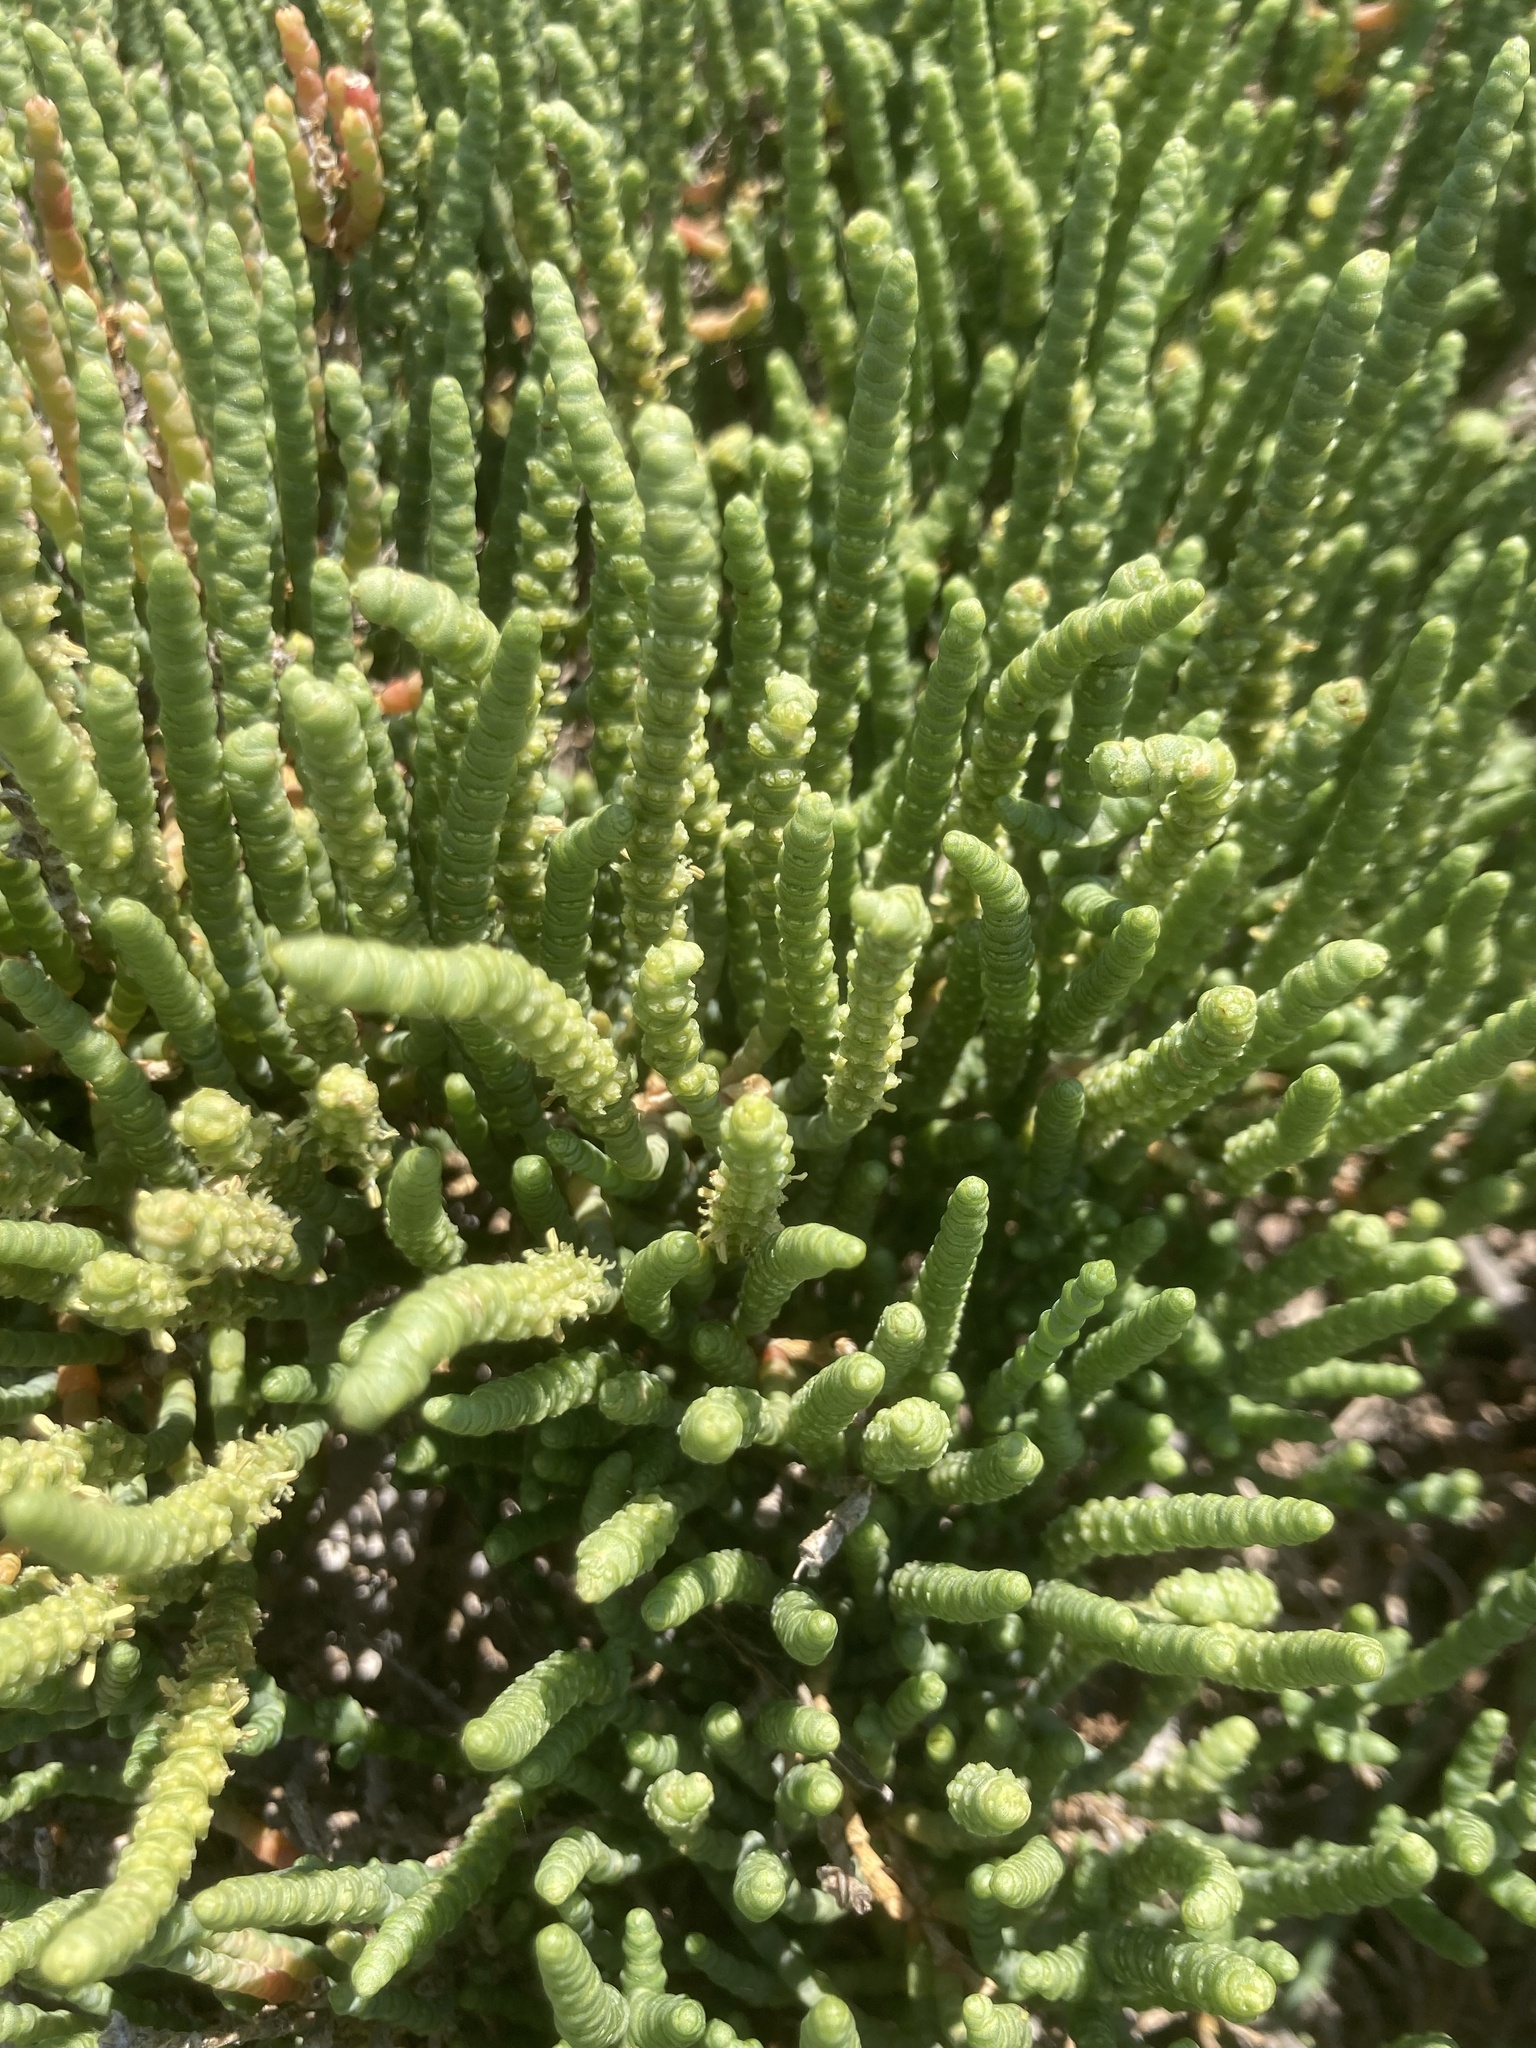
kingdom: Plantae
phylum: Tracheophyta
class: Magnoliopsida
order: Caryophyllales
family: Amaranthaceae
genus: Arthrocaulon
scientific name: Arthrocaulon macrostachyum
